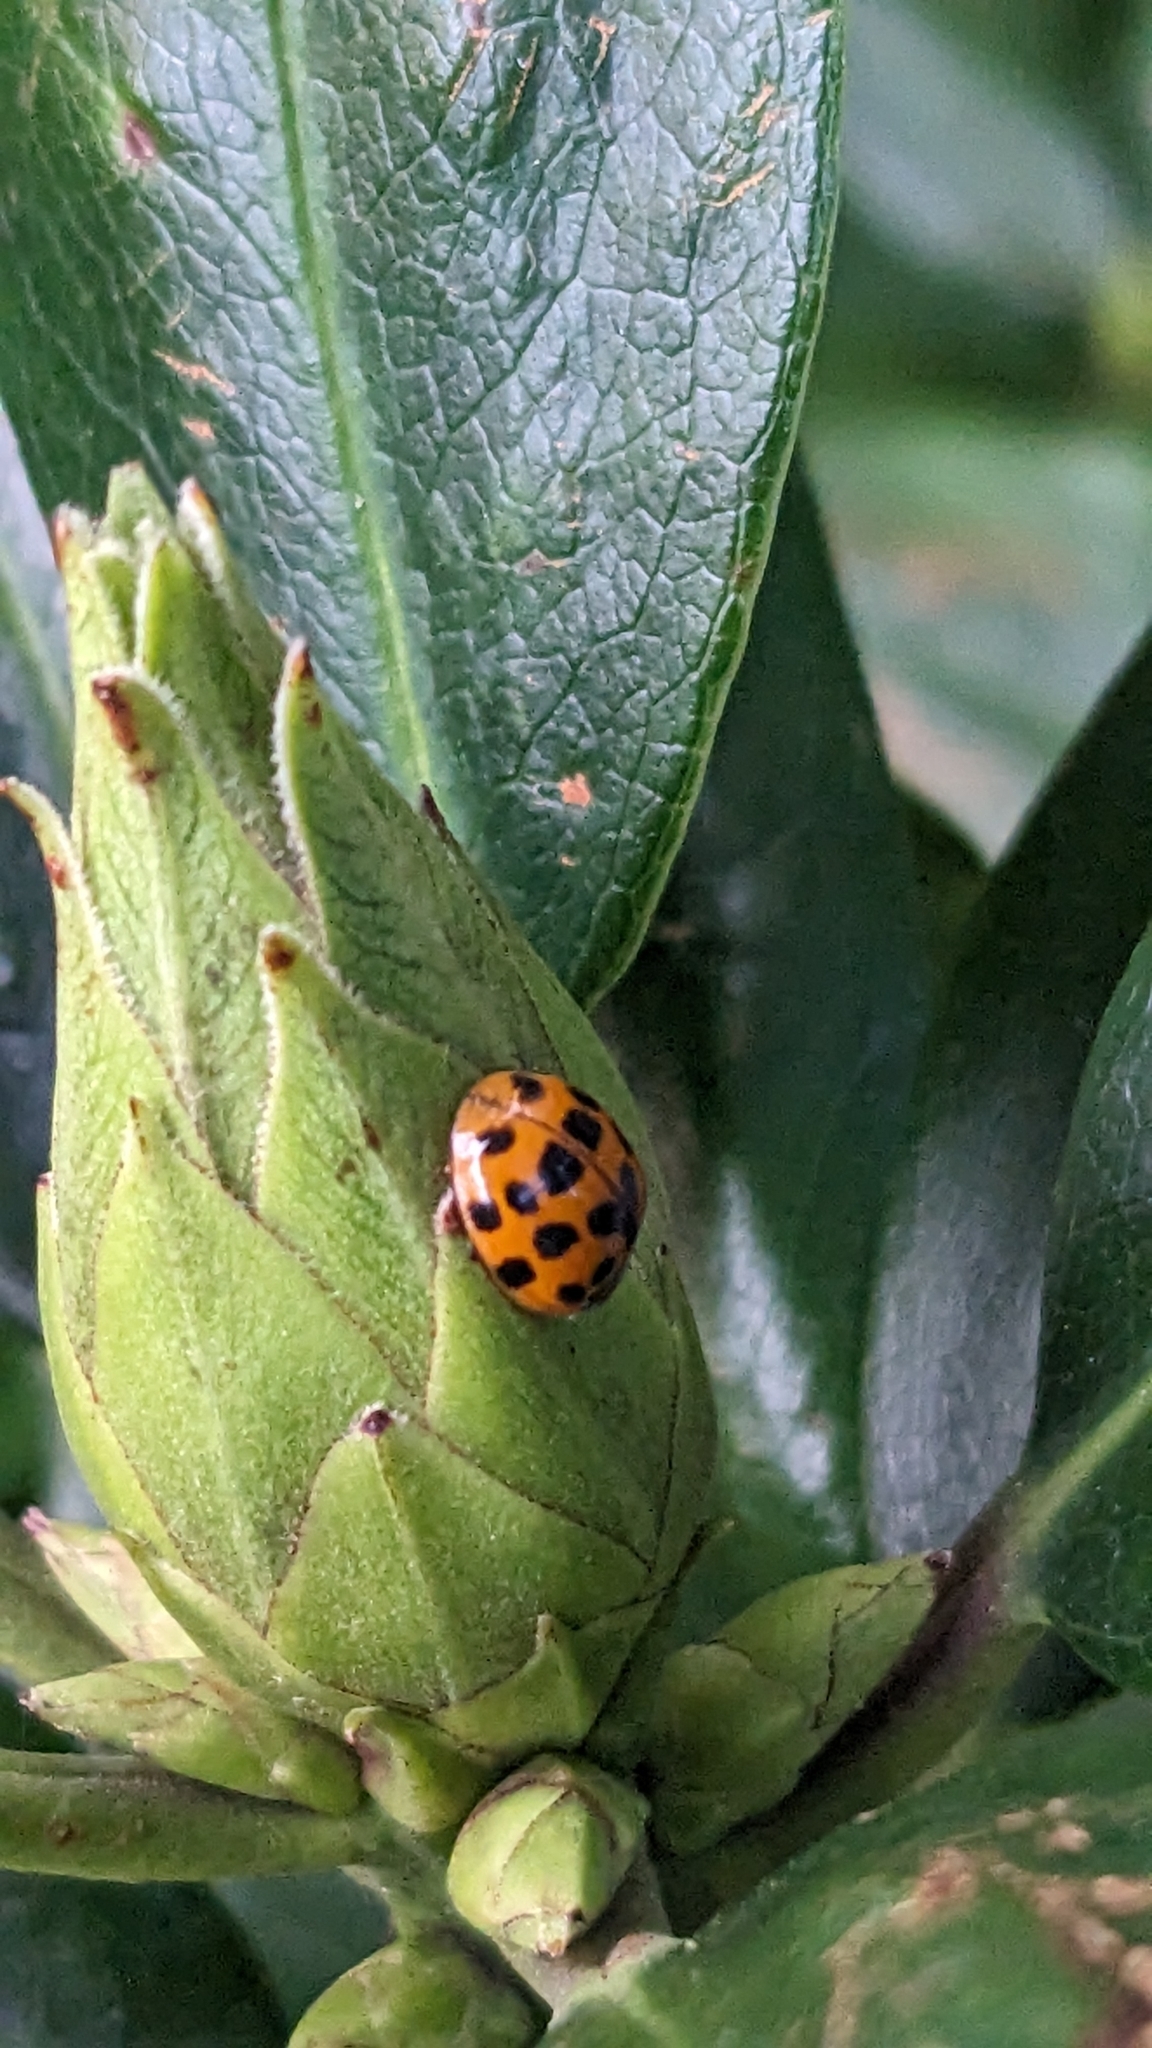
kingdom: Animalia
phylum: Arthropoda
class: Insecta
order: Coleoptera
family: Coccinellidae
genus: Harmonia
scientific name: Harmonia axyridis
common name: Harlequin ladybird
